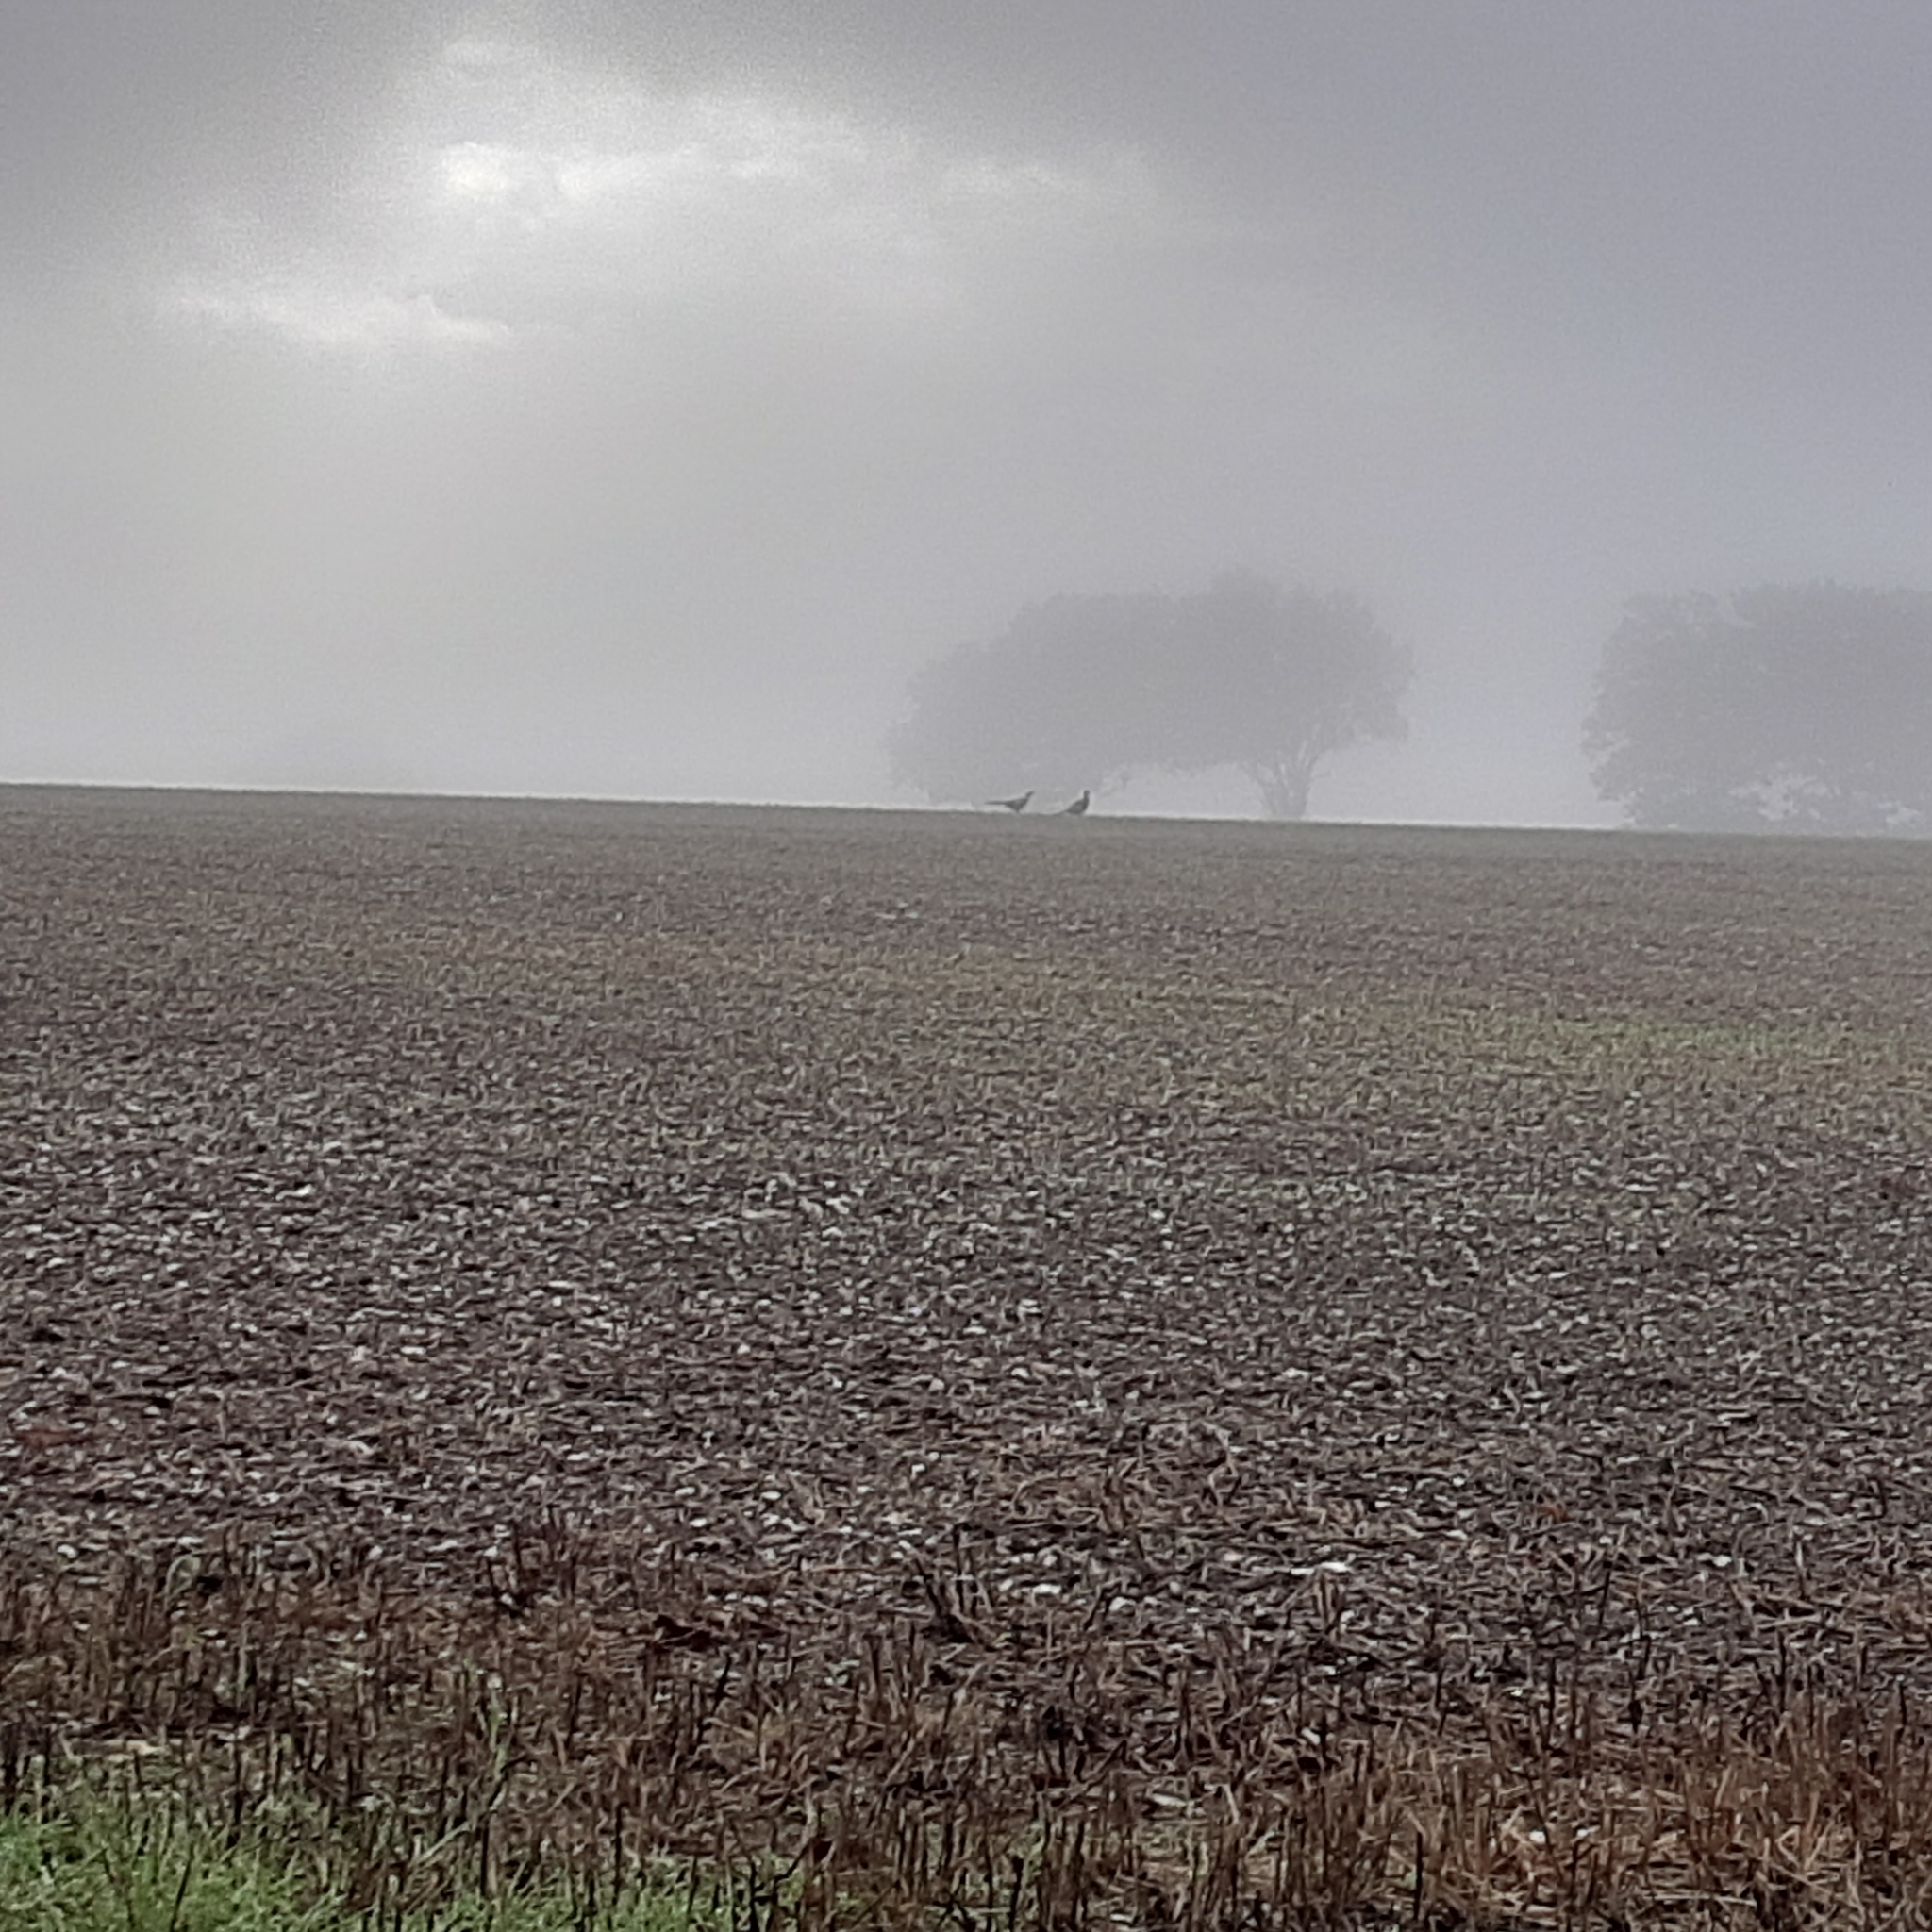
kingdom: Animalia
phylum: Chordata
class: Aves
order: Galliformes
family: Phasianidae
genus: Phasianus
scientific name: Phasianus colchicus
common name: Common pheasant
